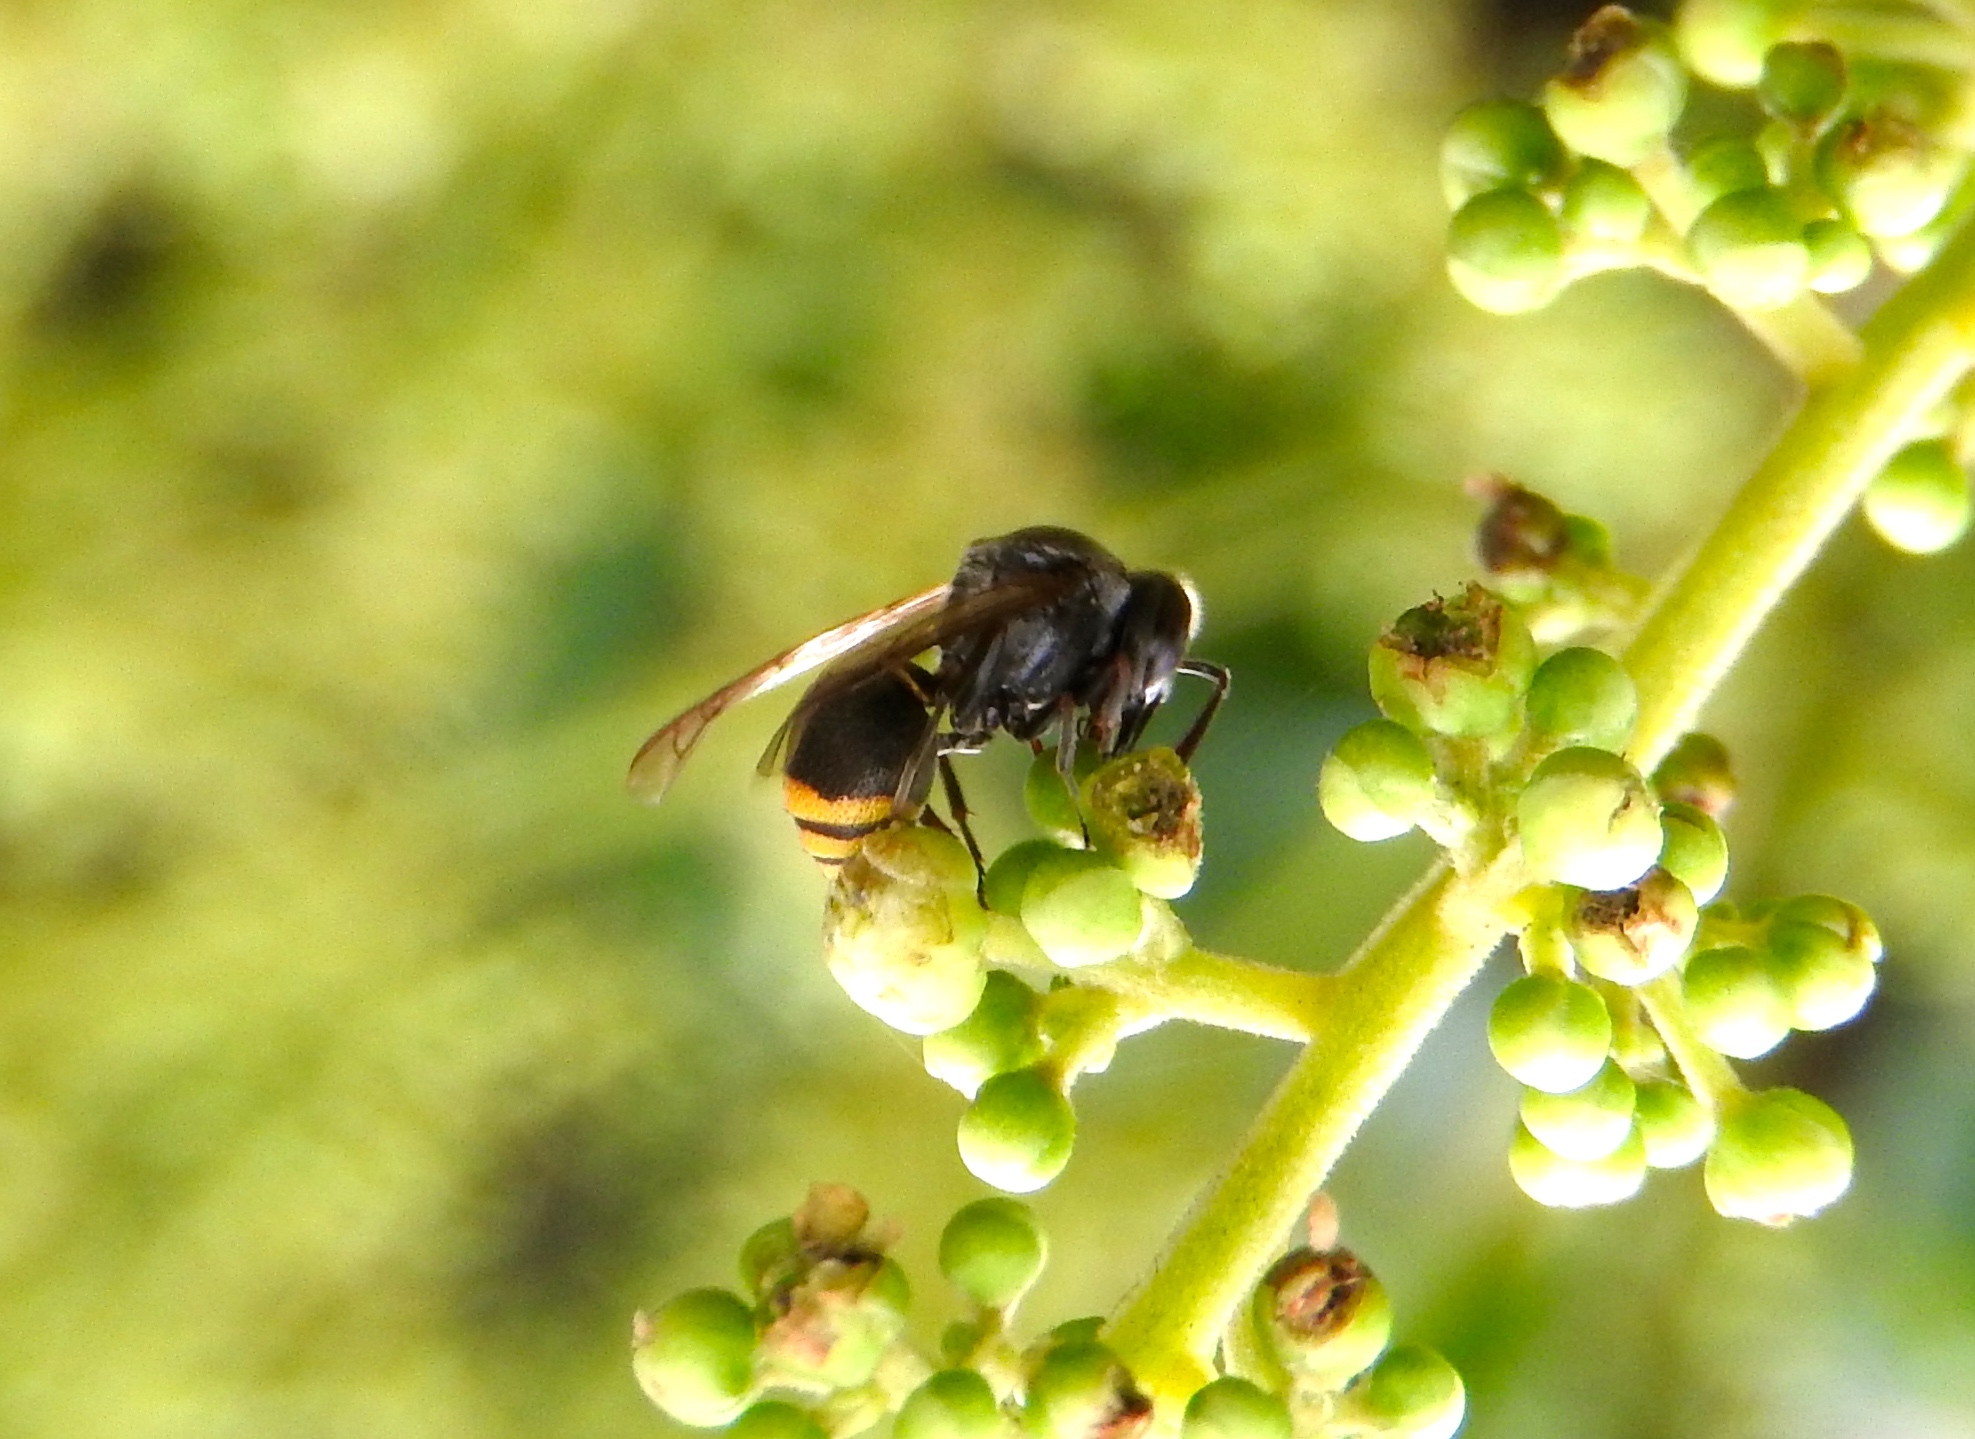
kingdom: Animalia
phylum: Arthropoda
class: Insecta
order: Hymenoptera
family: Vespidae
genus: Brachygastra
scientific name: Brachygastra azteca
